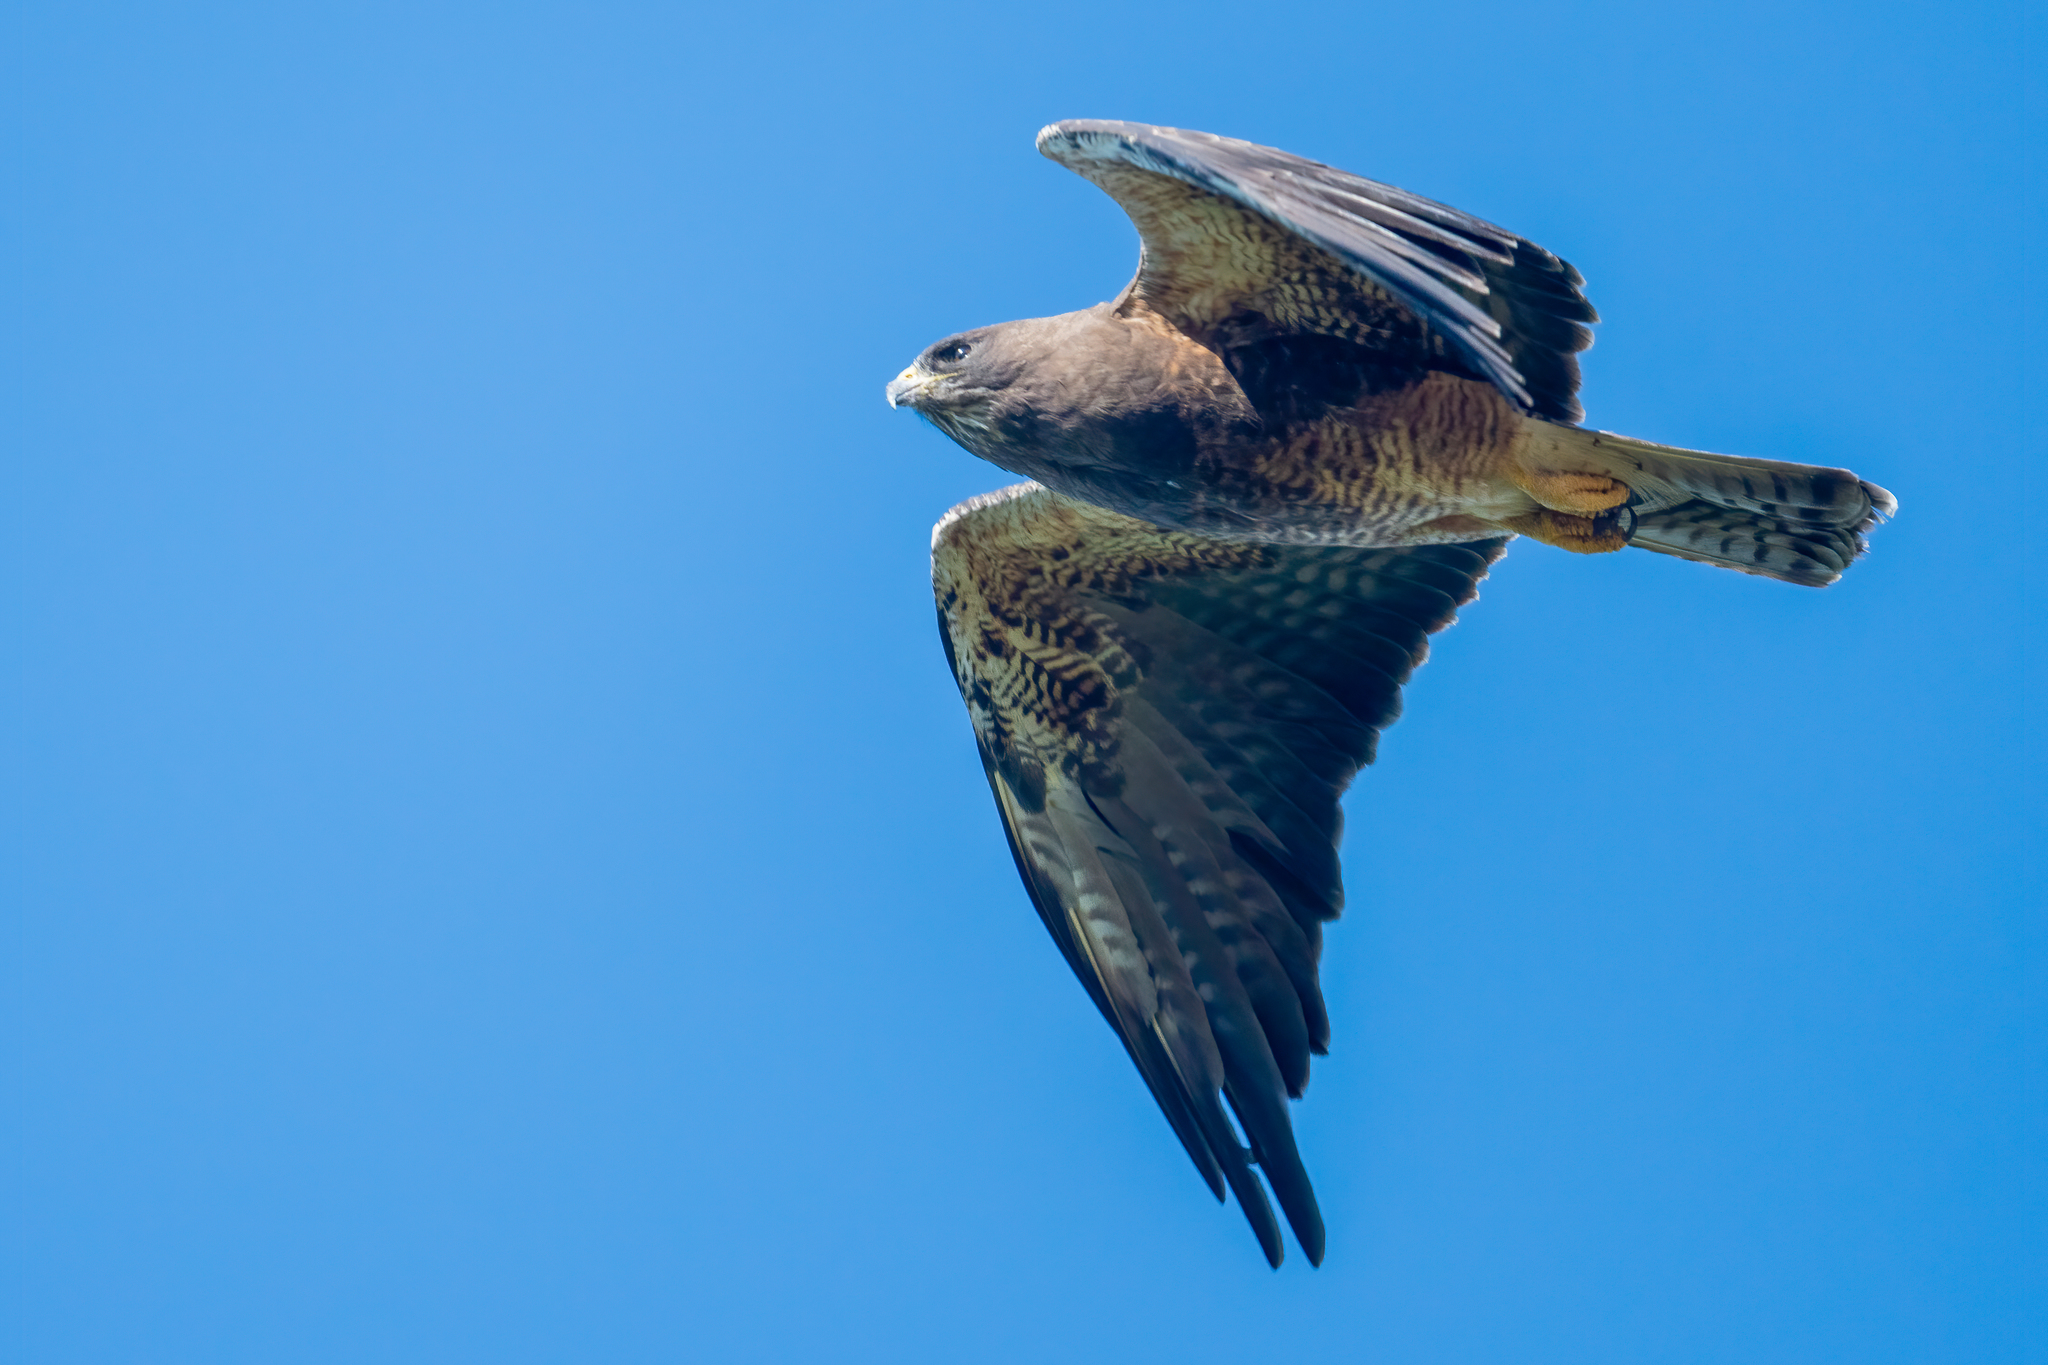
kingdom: Animalia
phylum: Chordata
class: Aves
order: Accipitriformes
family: Accipitridae
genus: Buteo
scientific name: Buteo swainsoni
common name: Swainson's hawk
